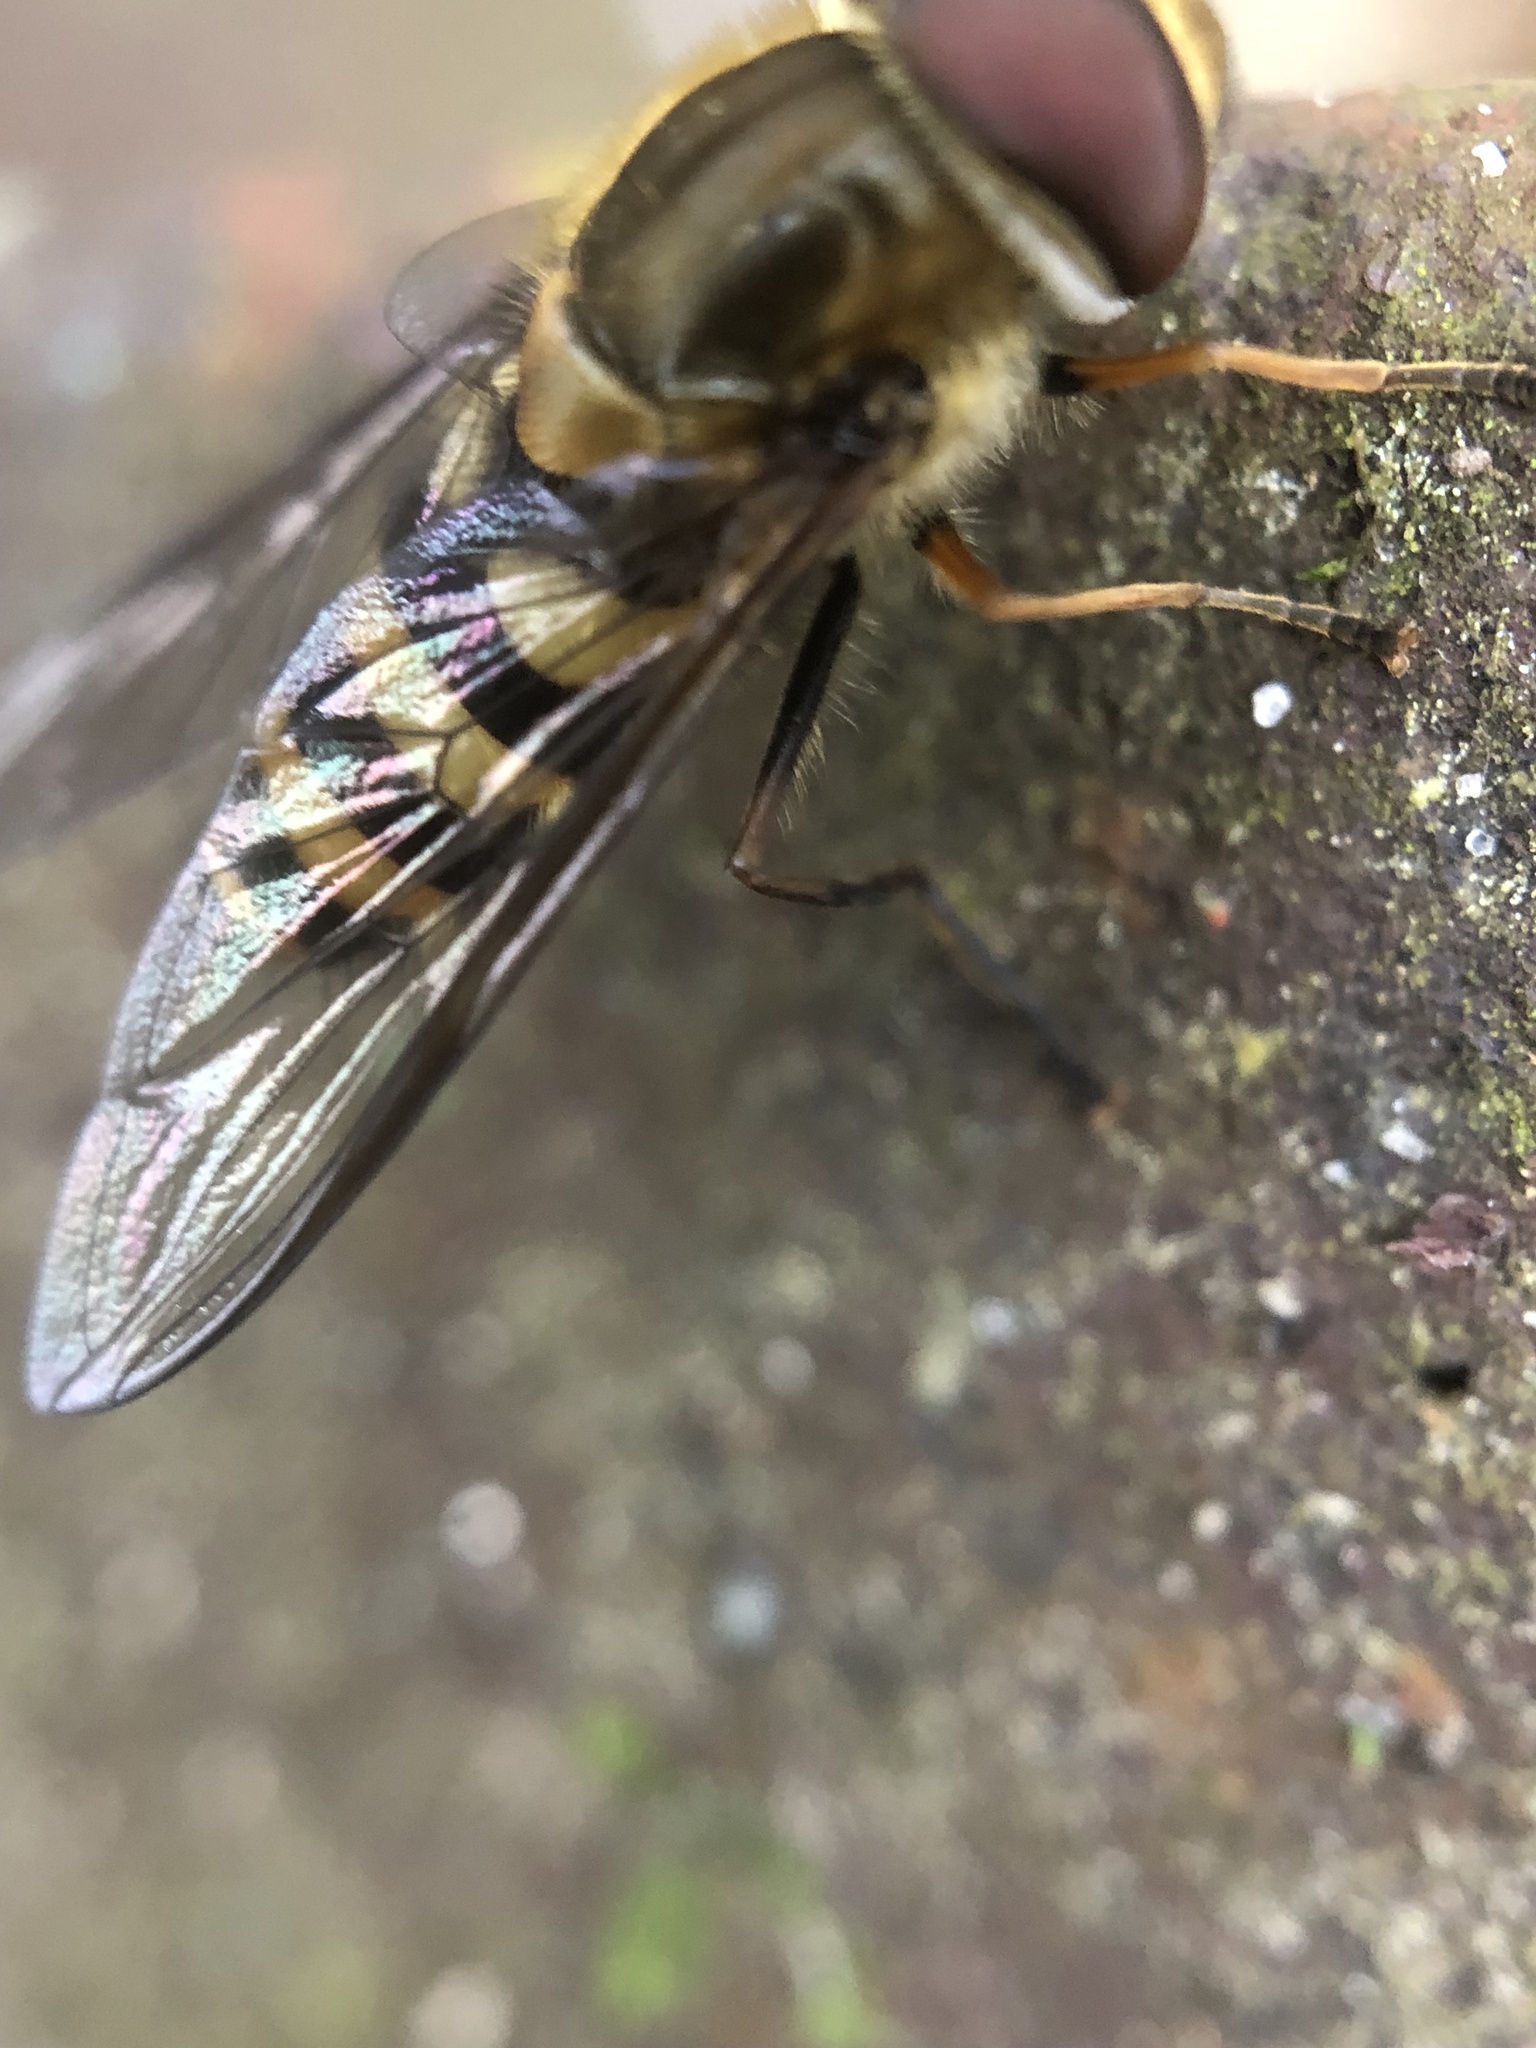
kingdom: Animalia
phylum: Arthropoda
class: Insecta
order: Diptera
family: Syrphidae
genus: Syrphus
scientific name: Syrphus torvus
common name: Hairy-eyed flower fly
